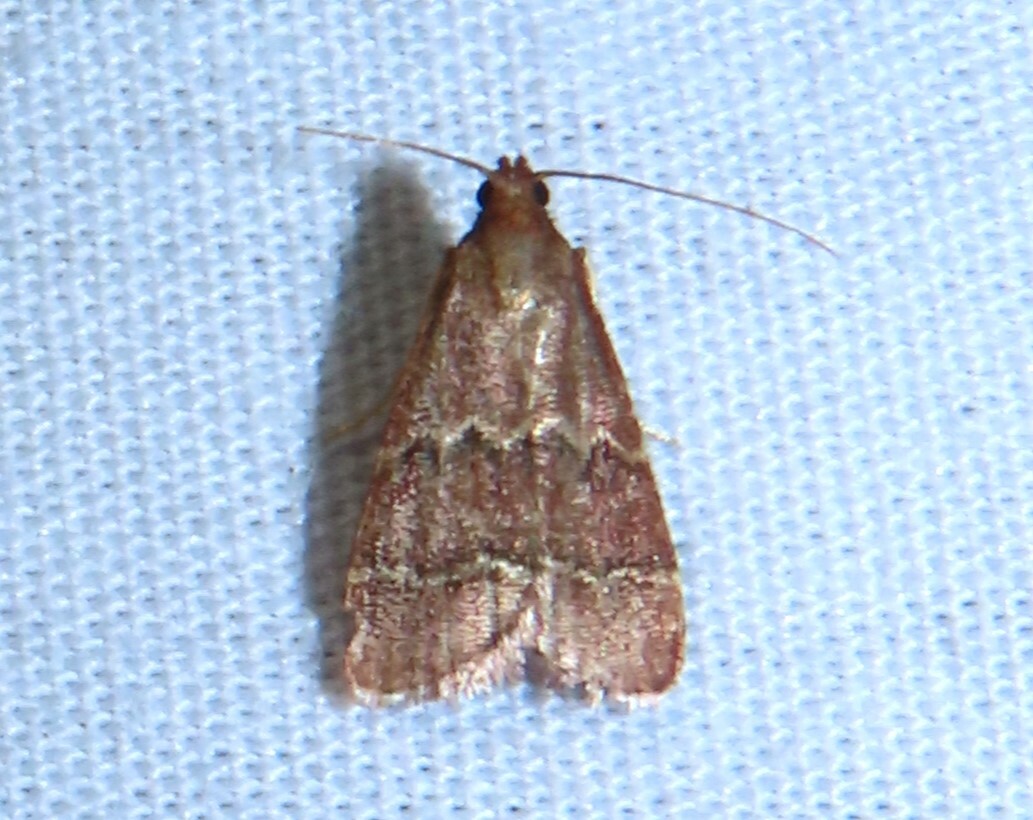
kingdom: Animalia
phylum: Arthropoda
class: Insecta
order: Lepidoptera
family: Pyralidae
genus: Arta
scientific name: Arta
